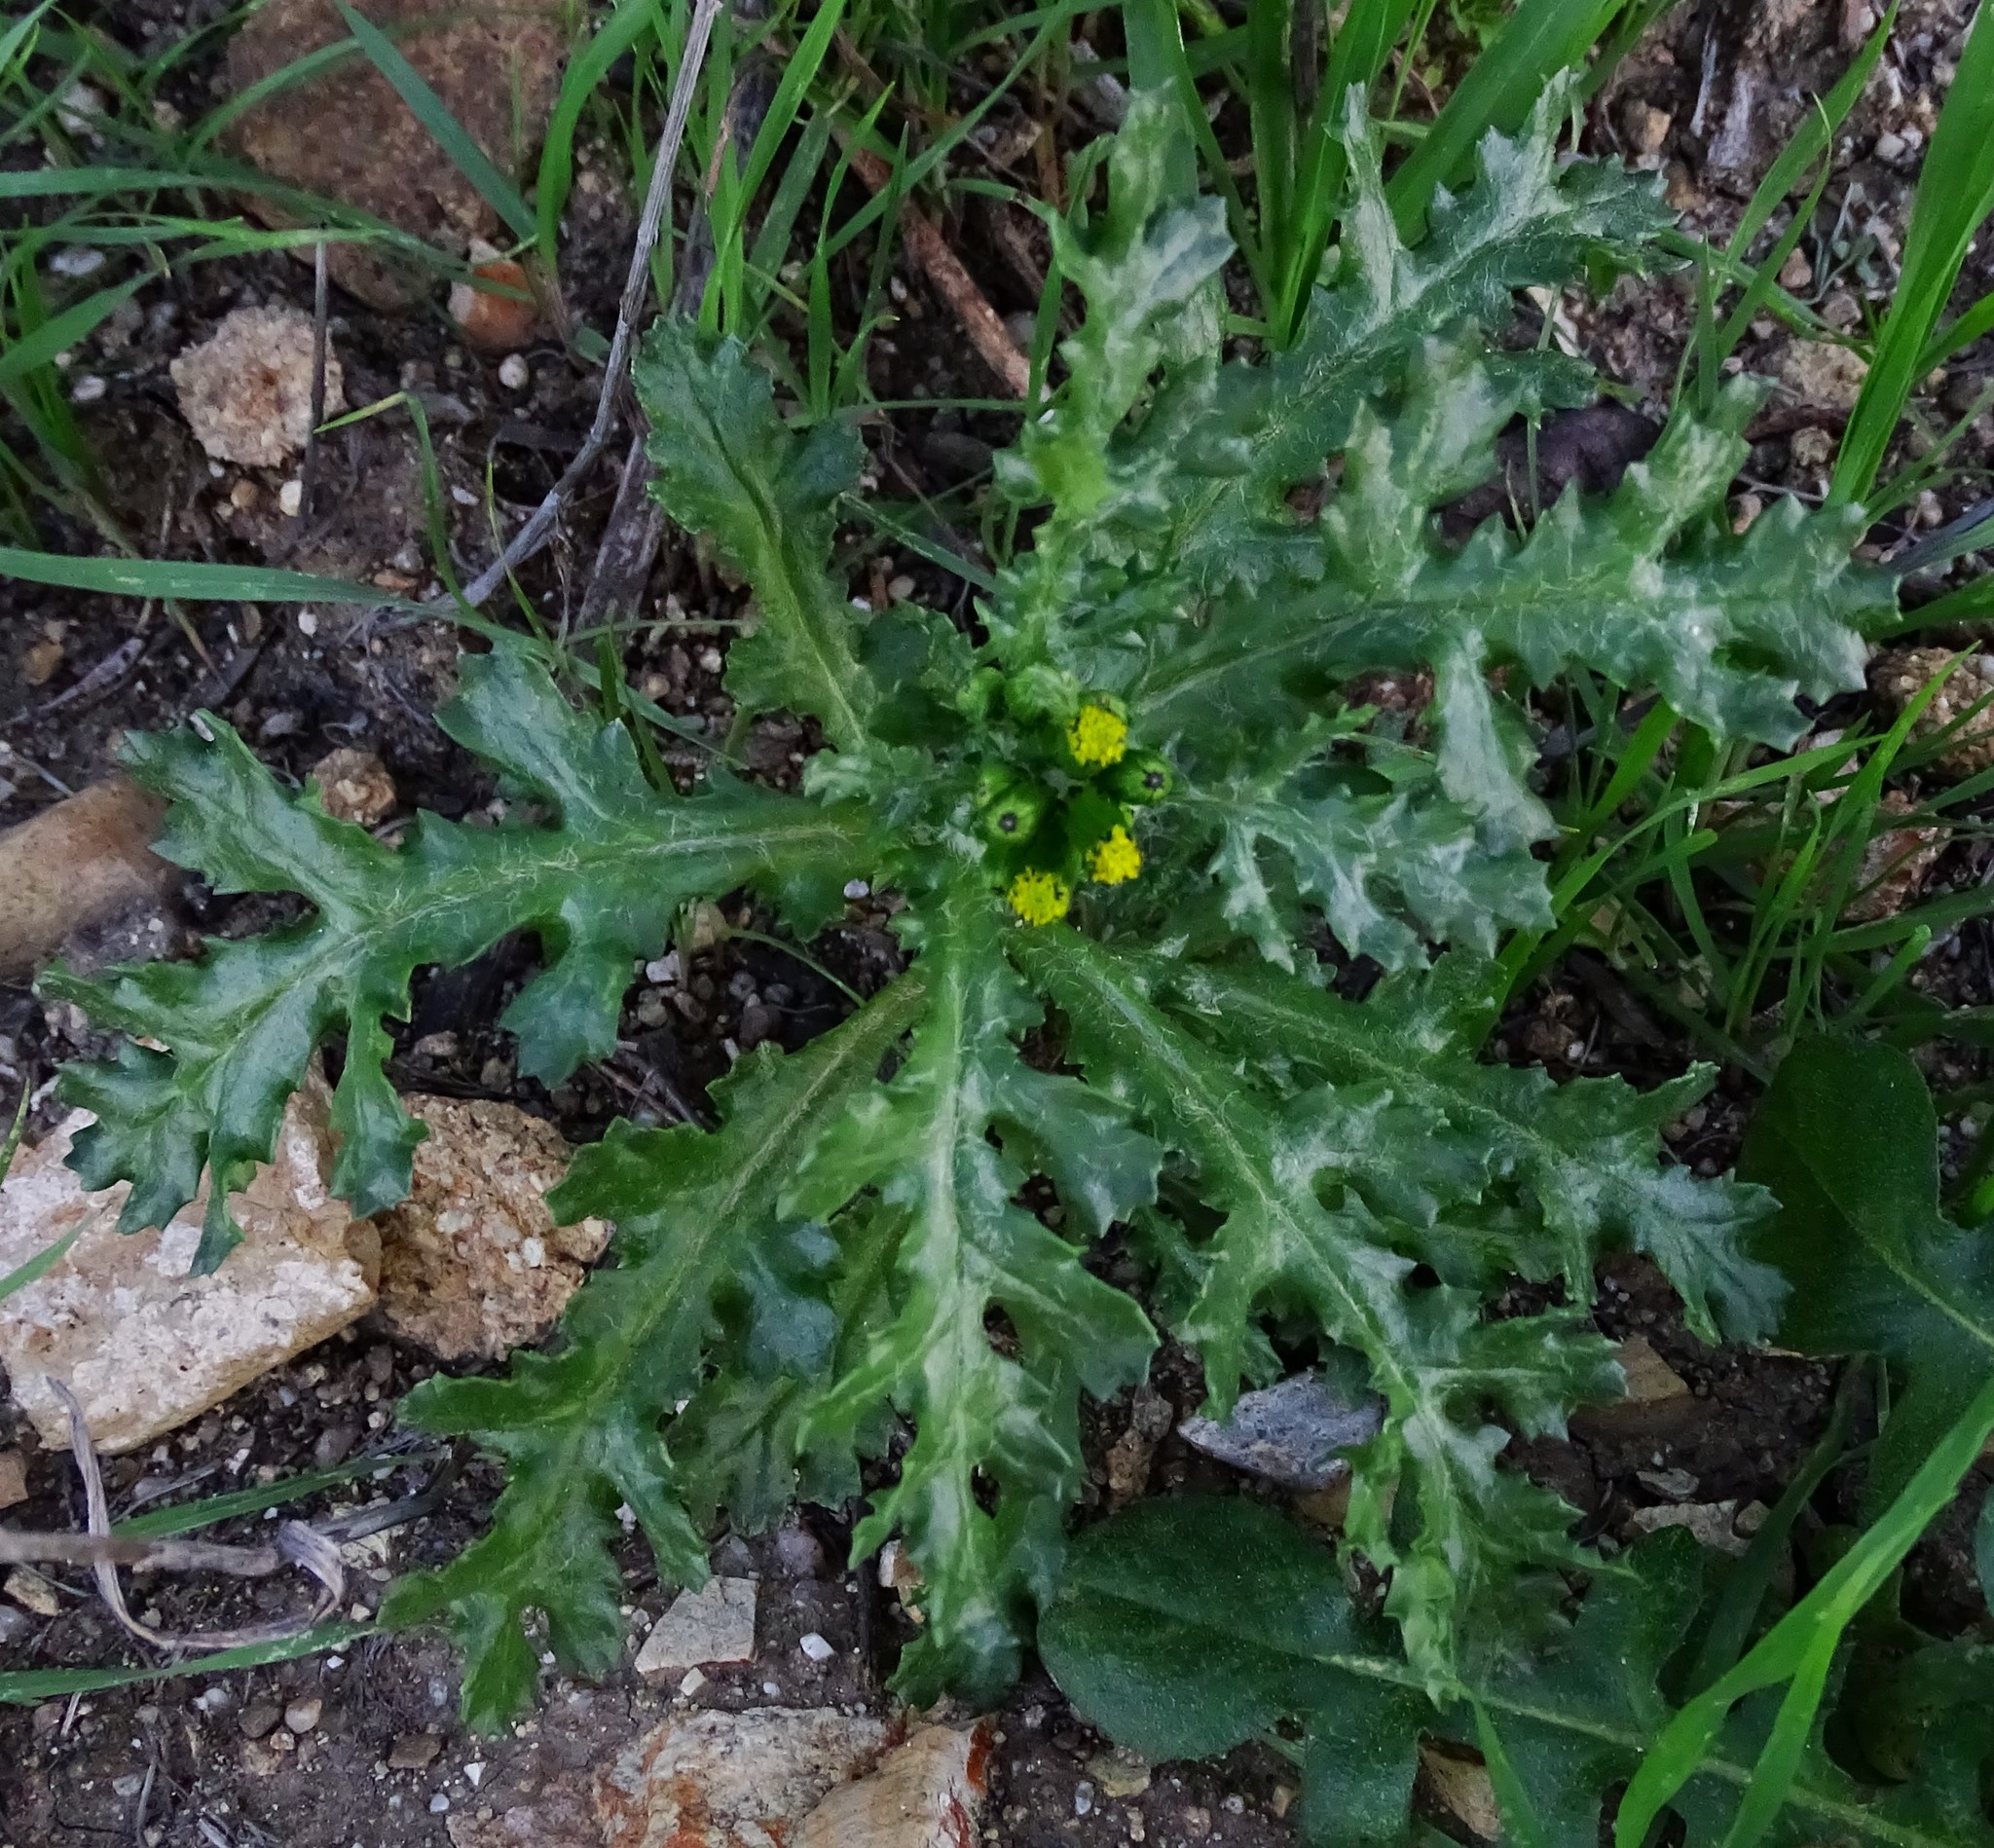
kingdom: Plantae
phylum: Tracheophyta
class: Magnoliopsida
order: Asterales
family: Asteraceae
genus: Senecio
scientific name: Senecio vulgaris
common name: Old-man-in-the-spring
